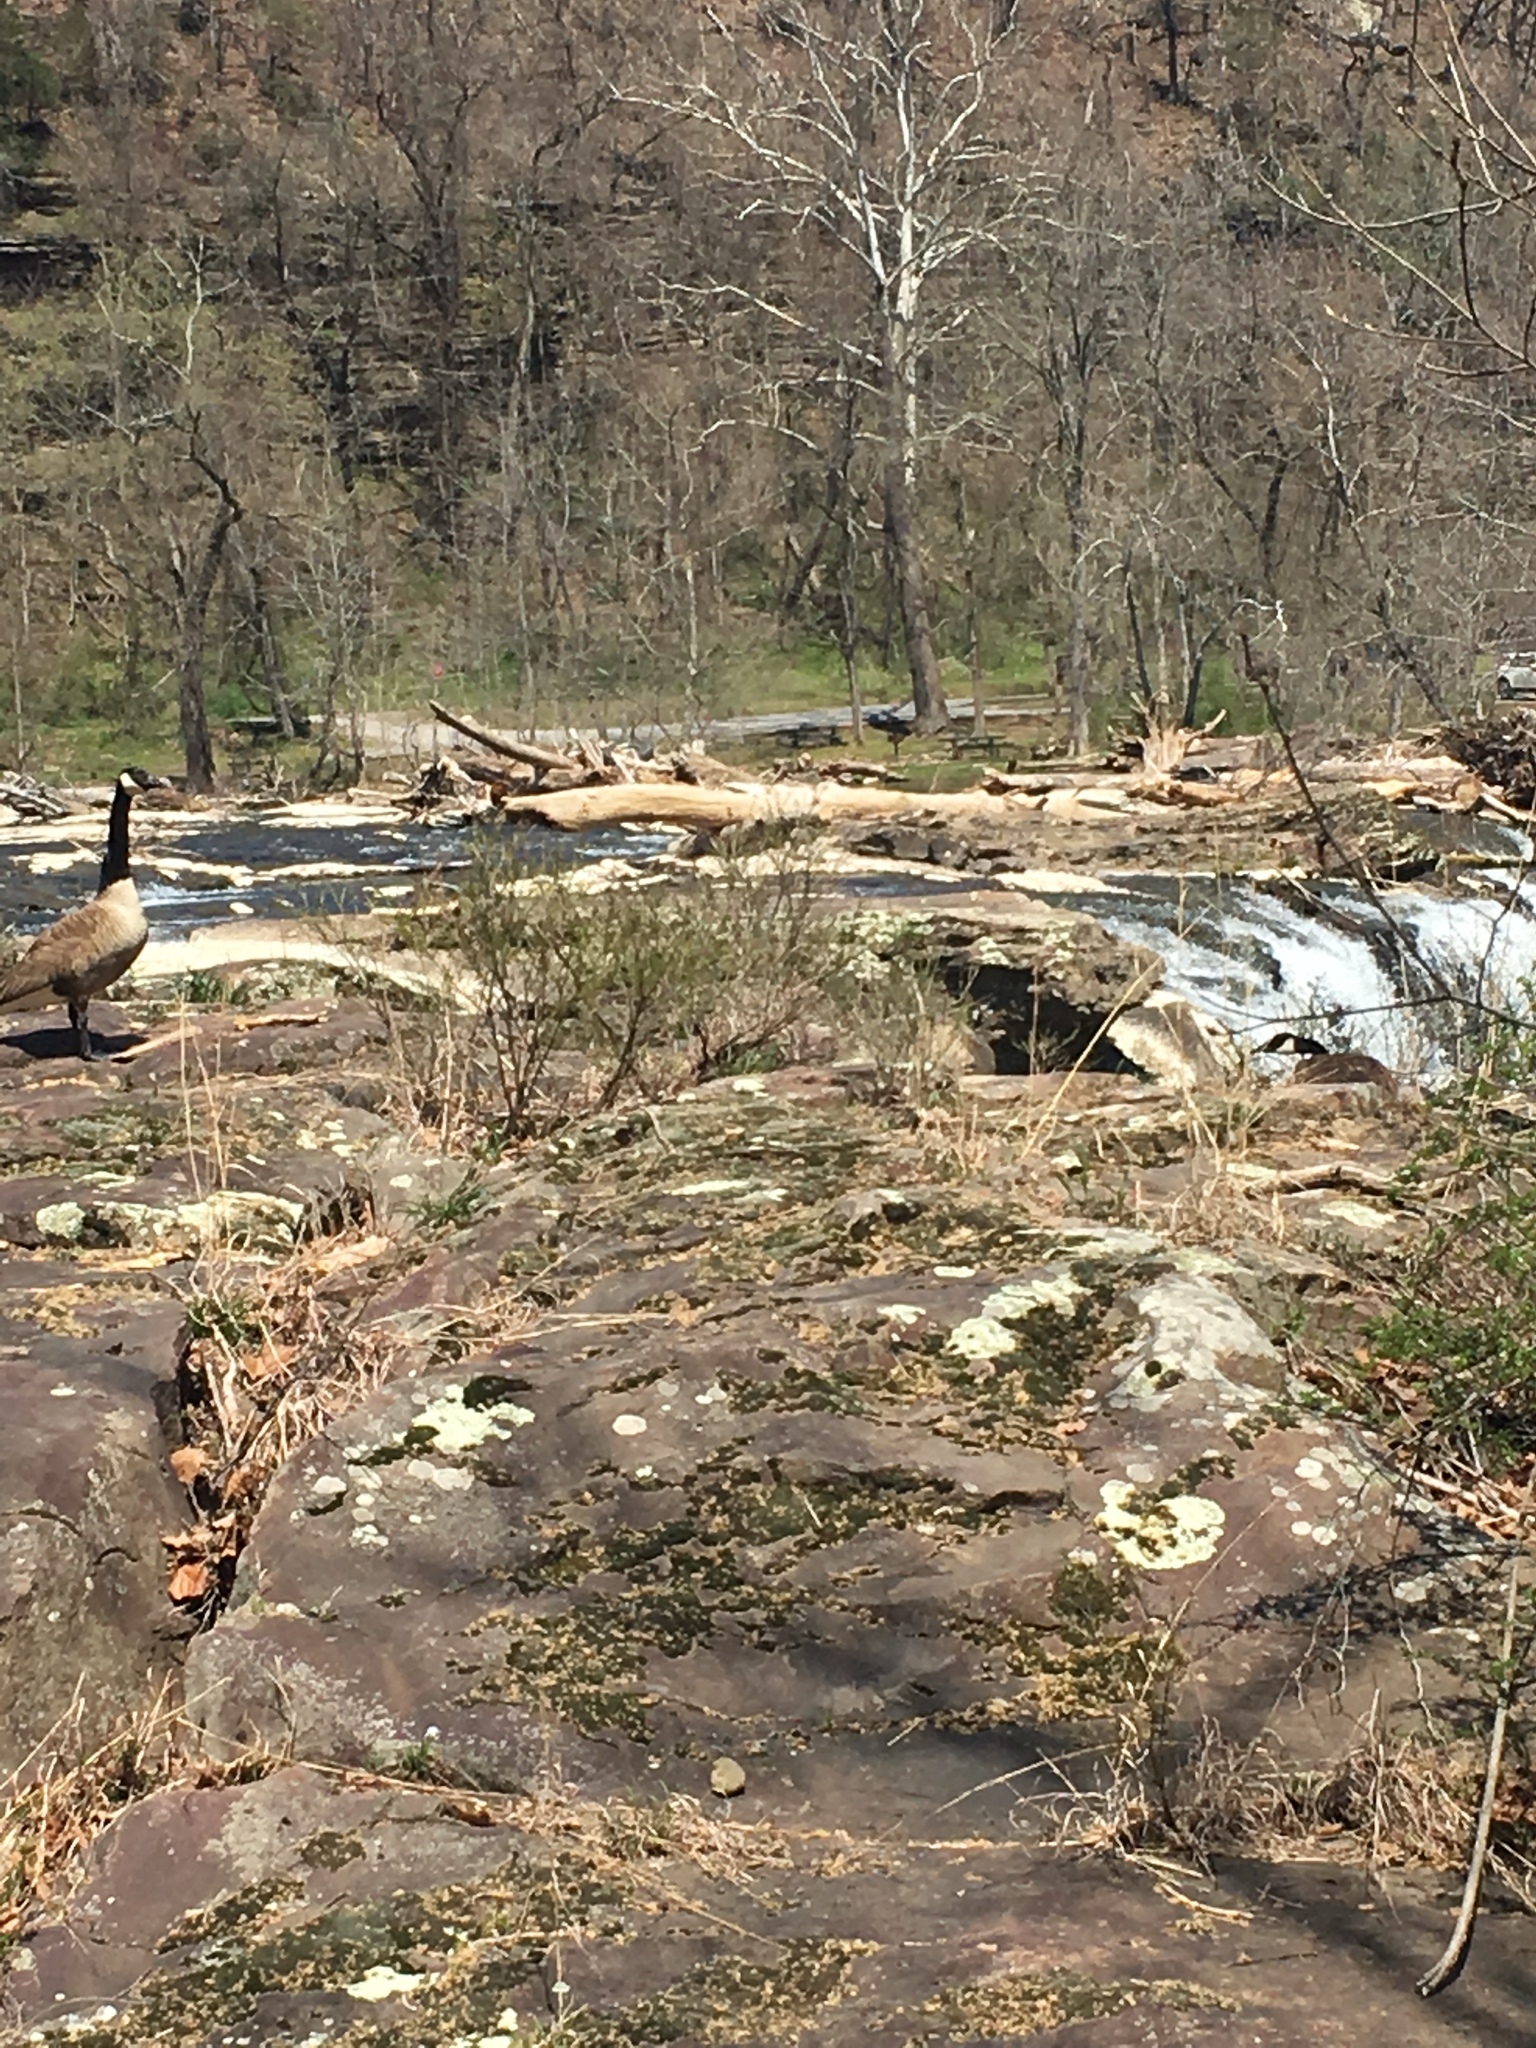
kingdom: Animalia
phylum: Chordata
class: Aves
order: Anseriformes
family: Anatidae
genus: Branta
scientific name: Branta canadensis
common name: Canada goose
